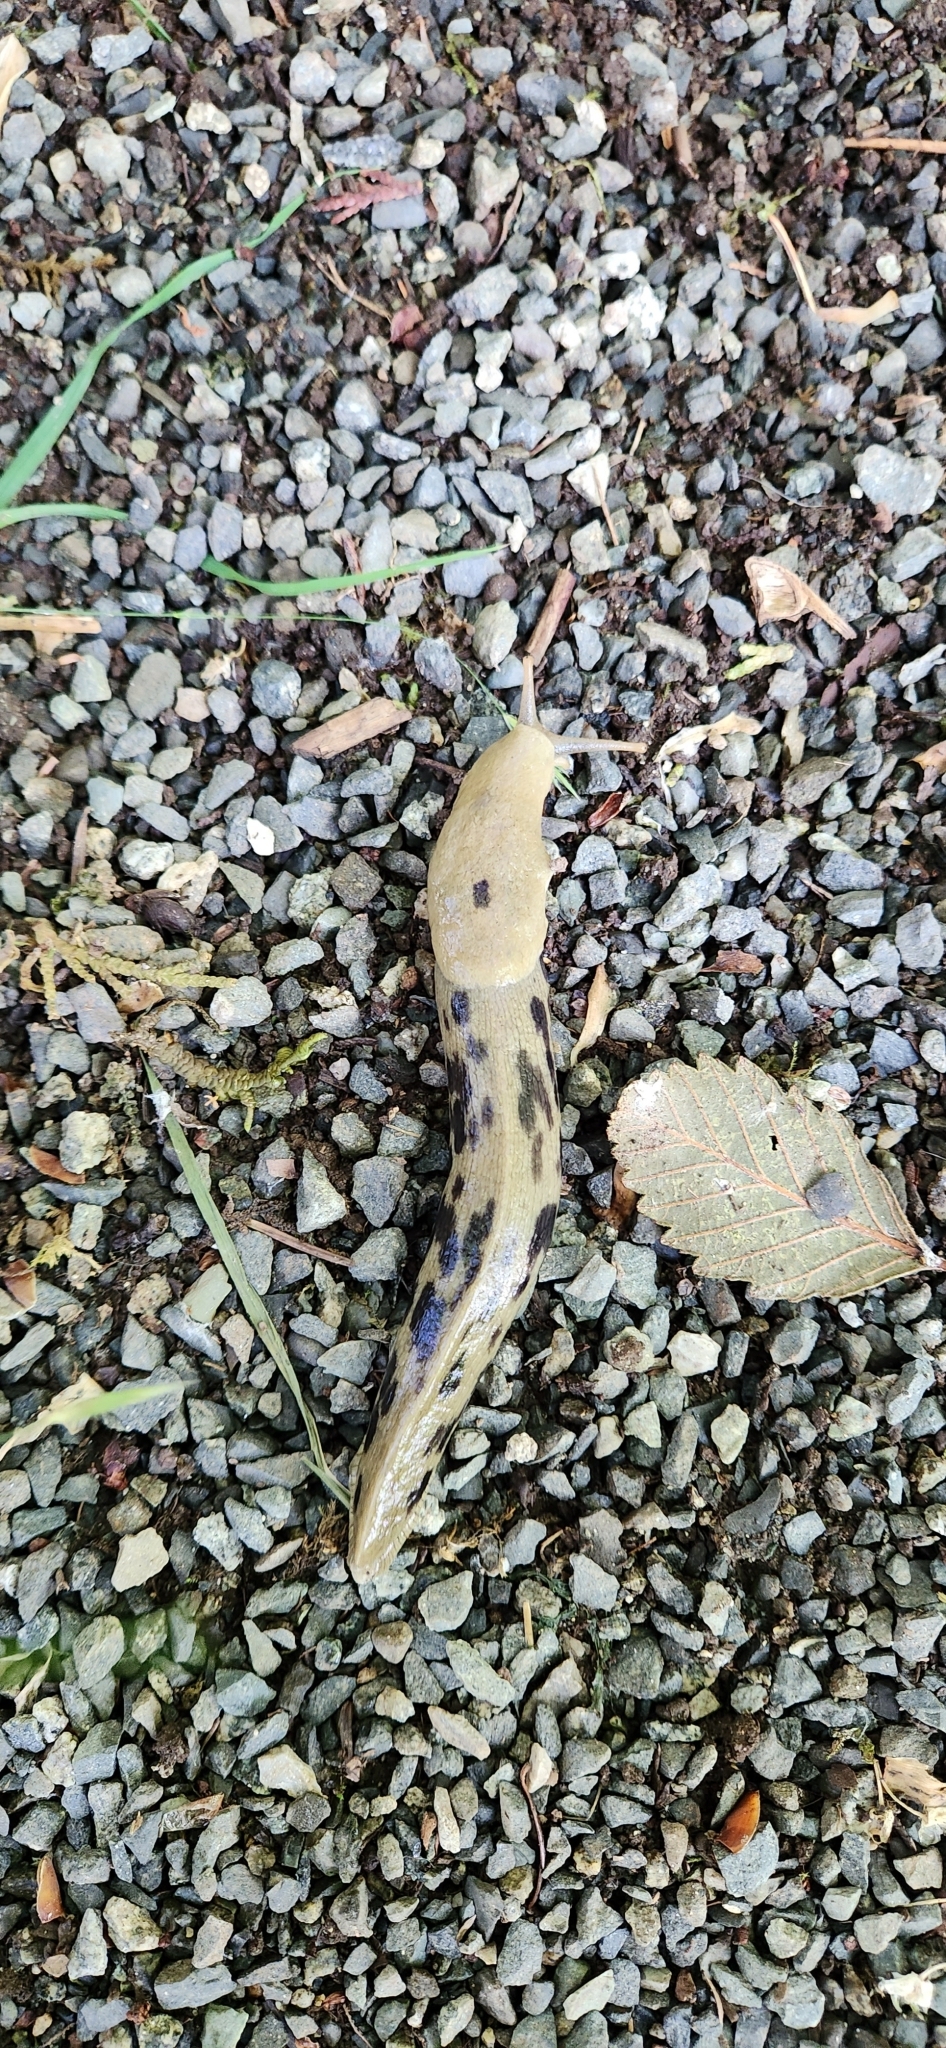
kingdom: Animalia
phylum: Mollusca
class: Gastropoda
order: Stylommatophora
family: Ariolimacidae
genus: Ariolimax
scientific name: Ariolimax columbianus
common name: Pacific banana slug
